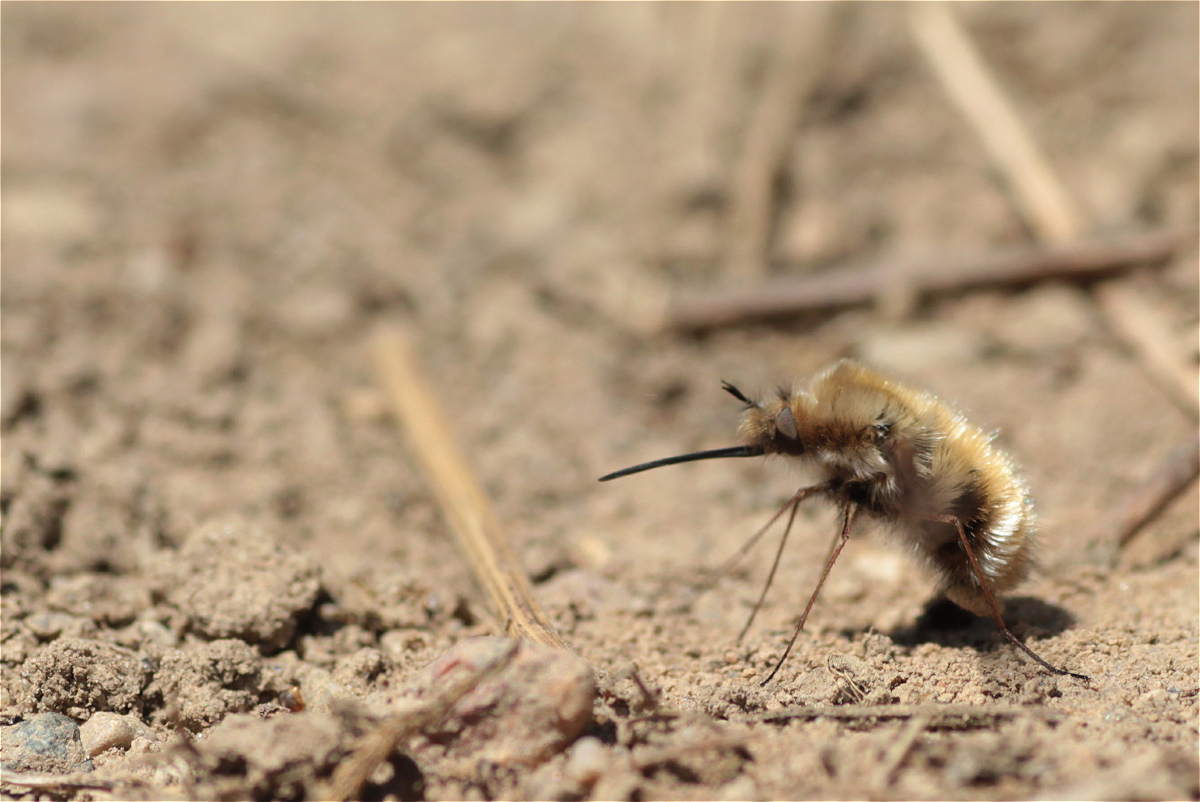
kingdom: Animalia
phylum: Arthropoda
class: Insecta
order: Diptera
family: Bombyliidae
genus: Bombylius
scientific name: Bombylius major
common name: Bee fly
